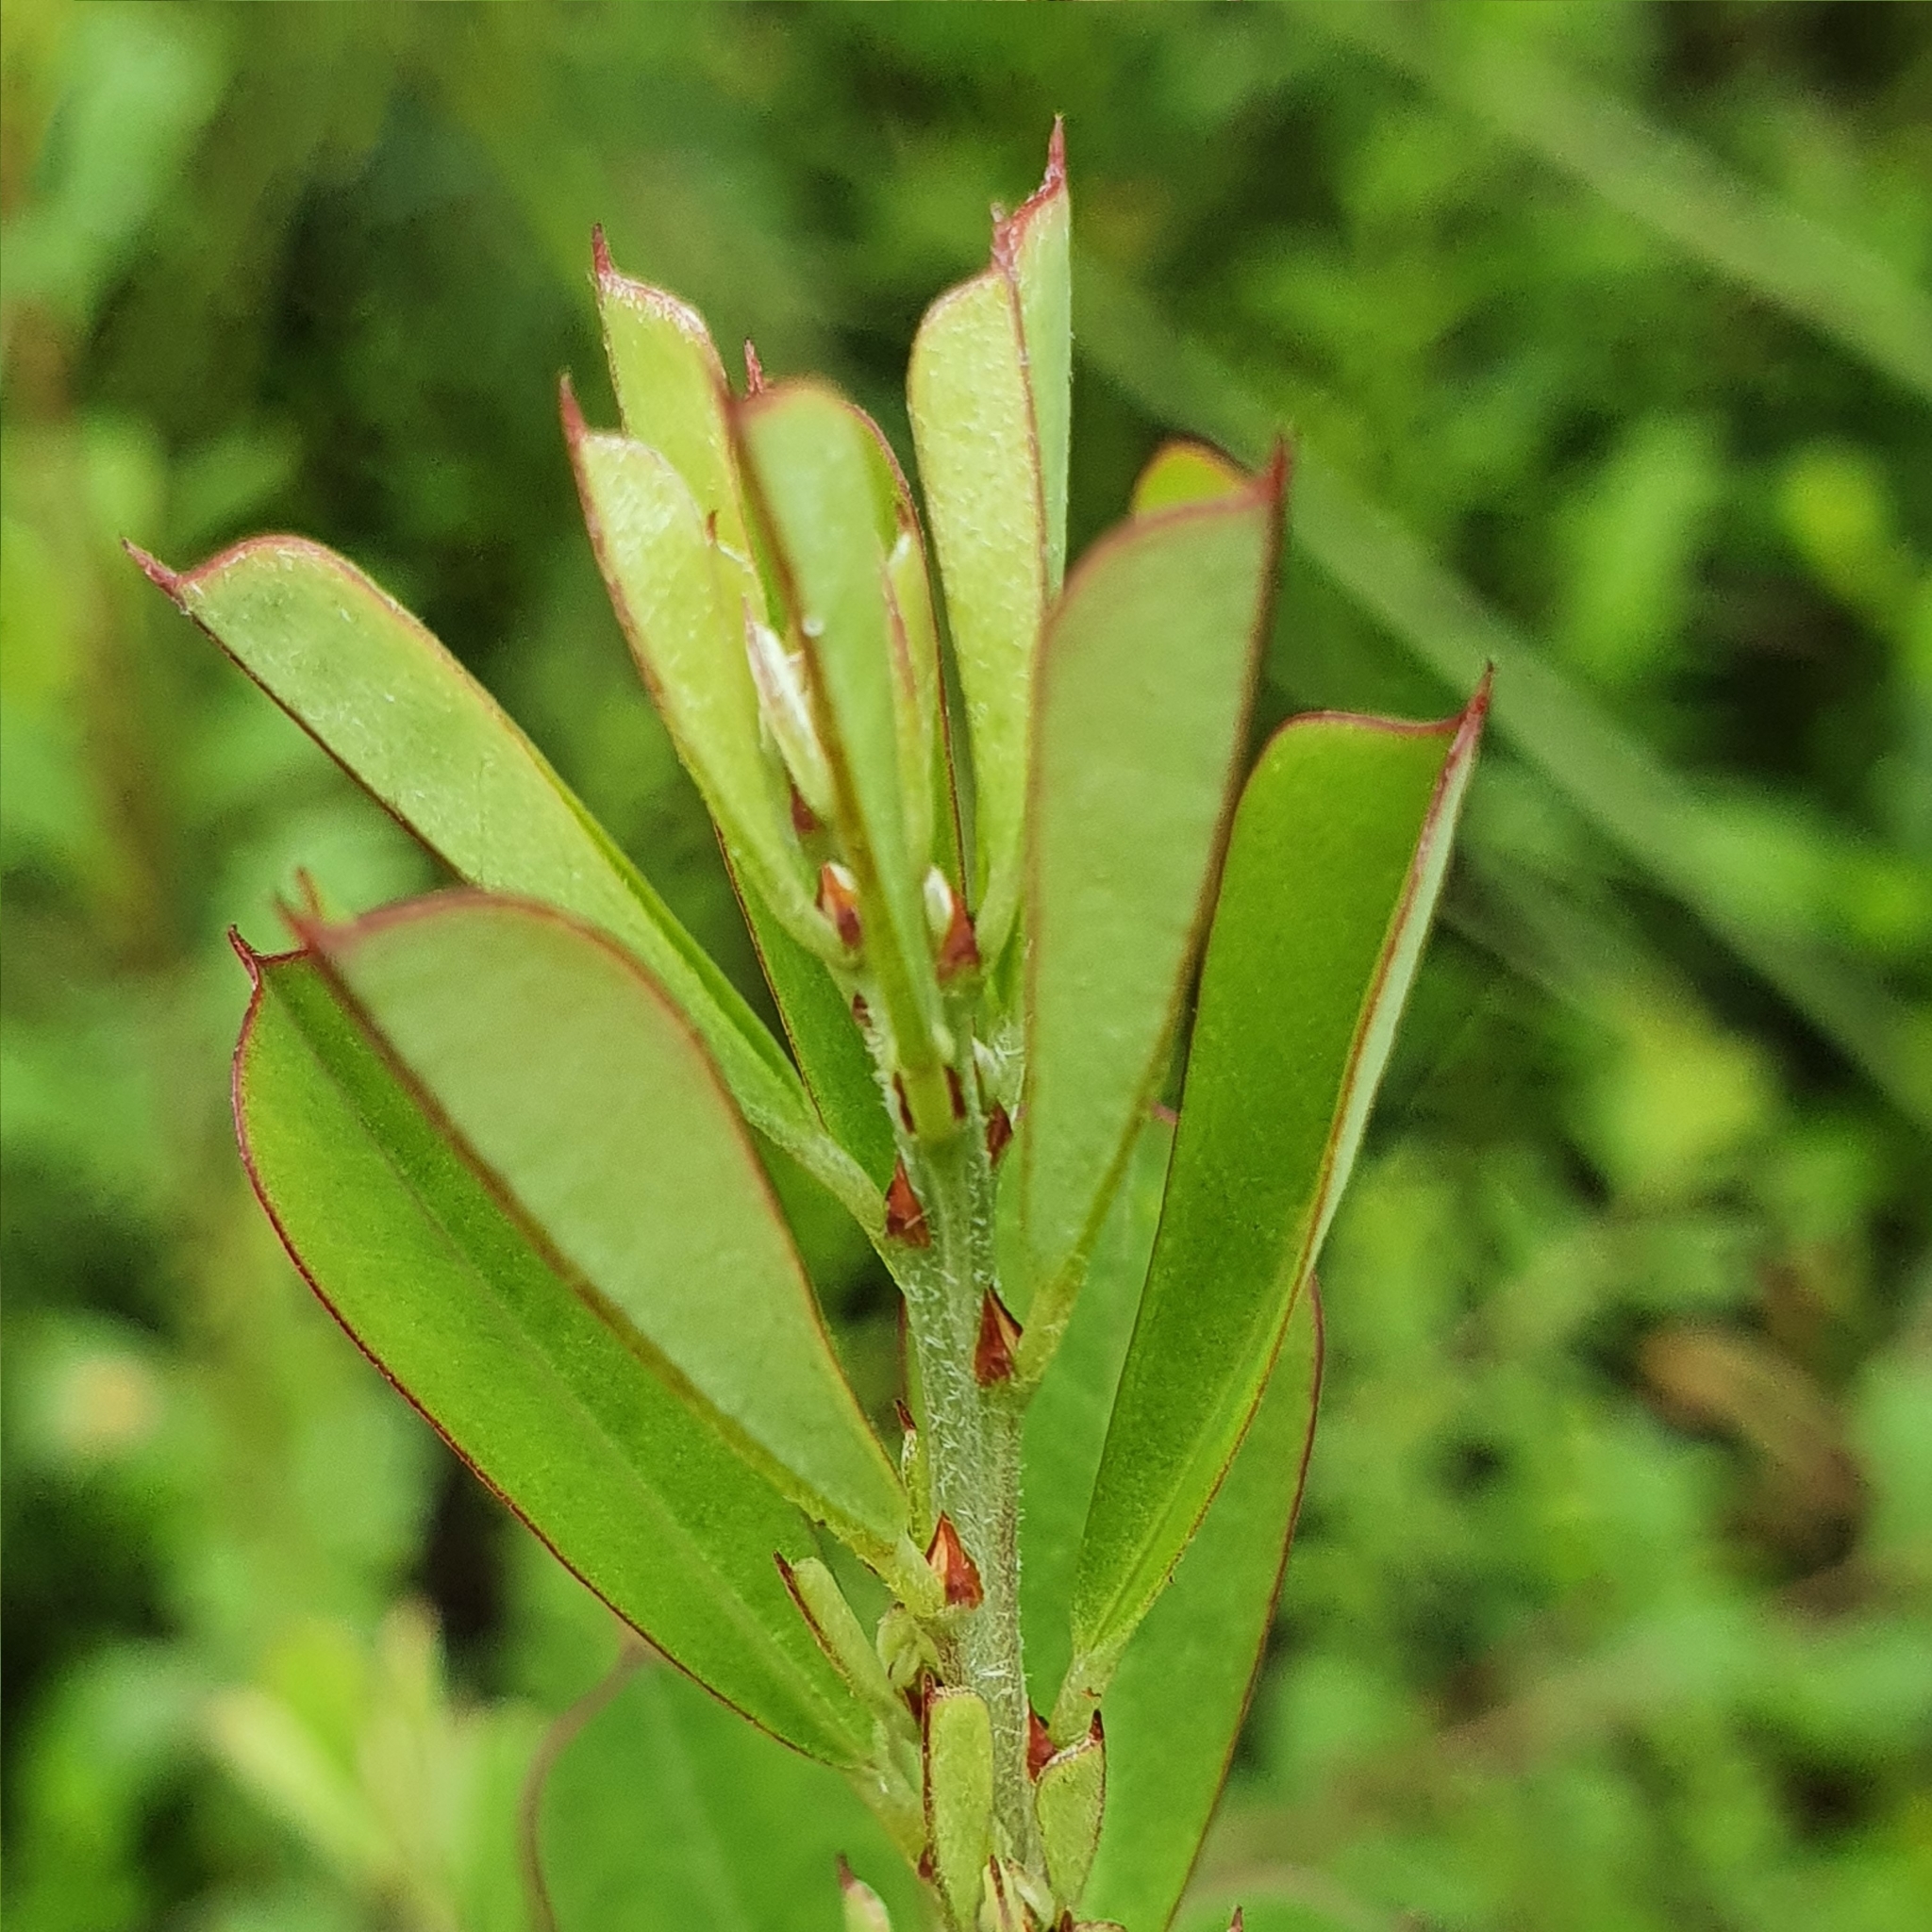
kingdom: Plantae
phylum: Tracheophyta
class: Magnoliopsida
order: Fabales
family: Fabaceae
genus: Pultenaea
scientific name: Pultenaea daphnoides
